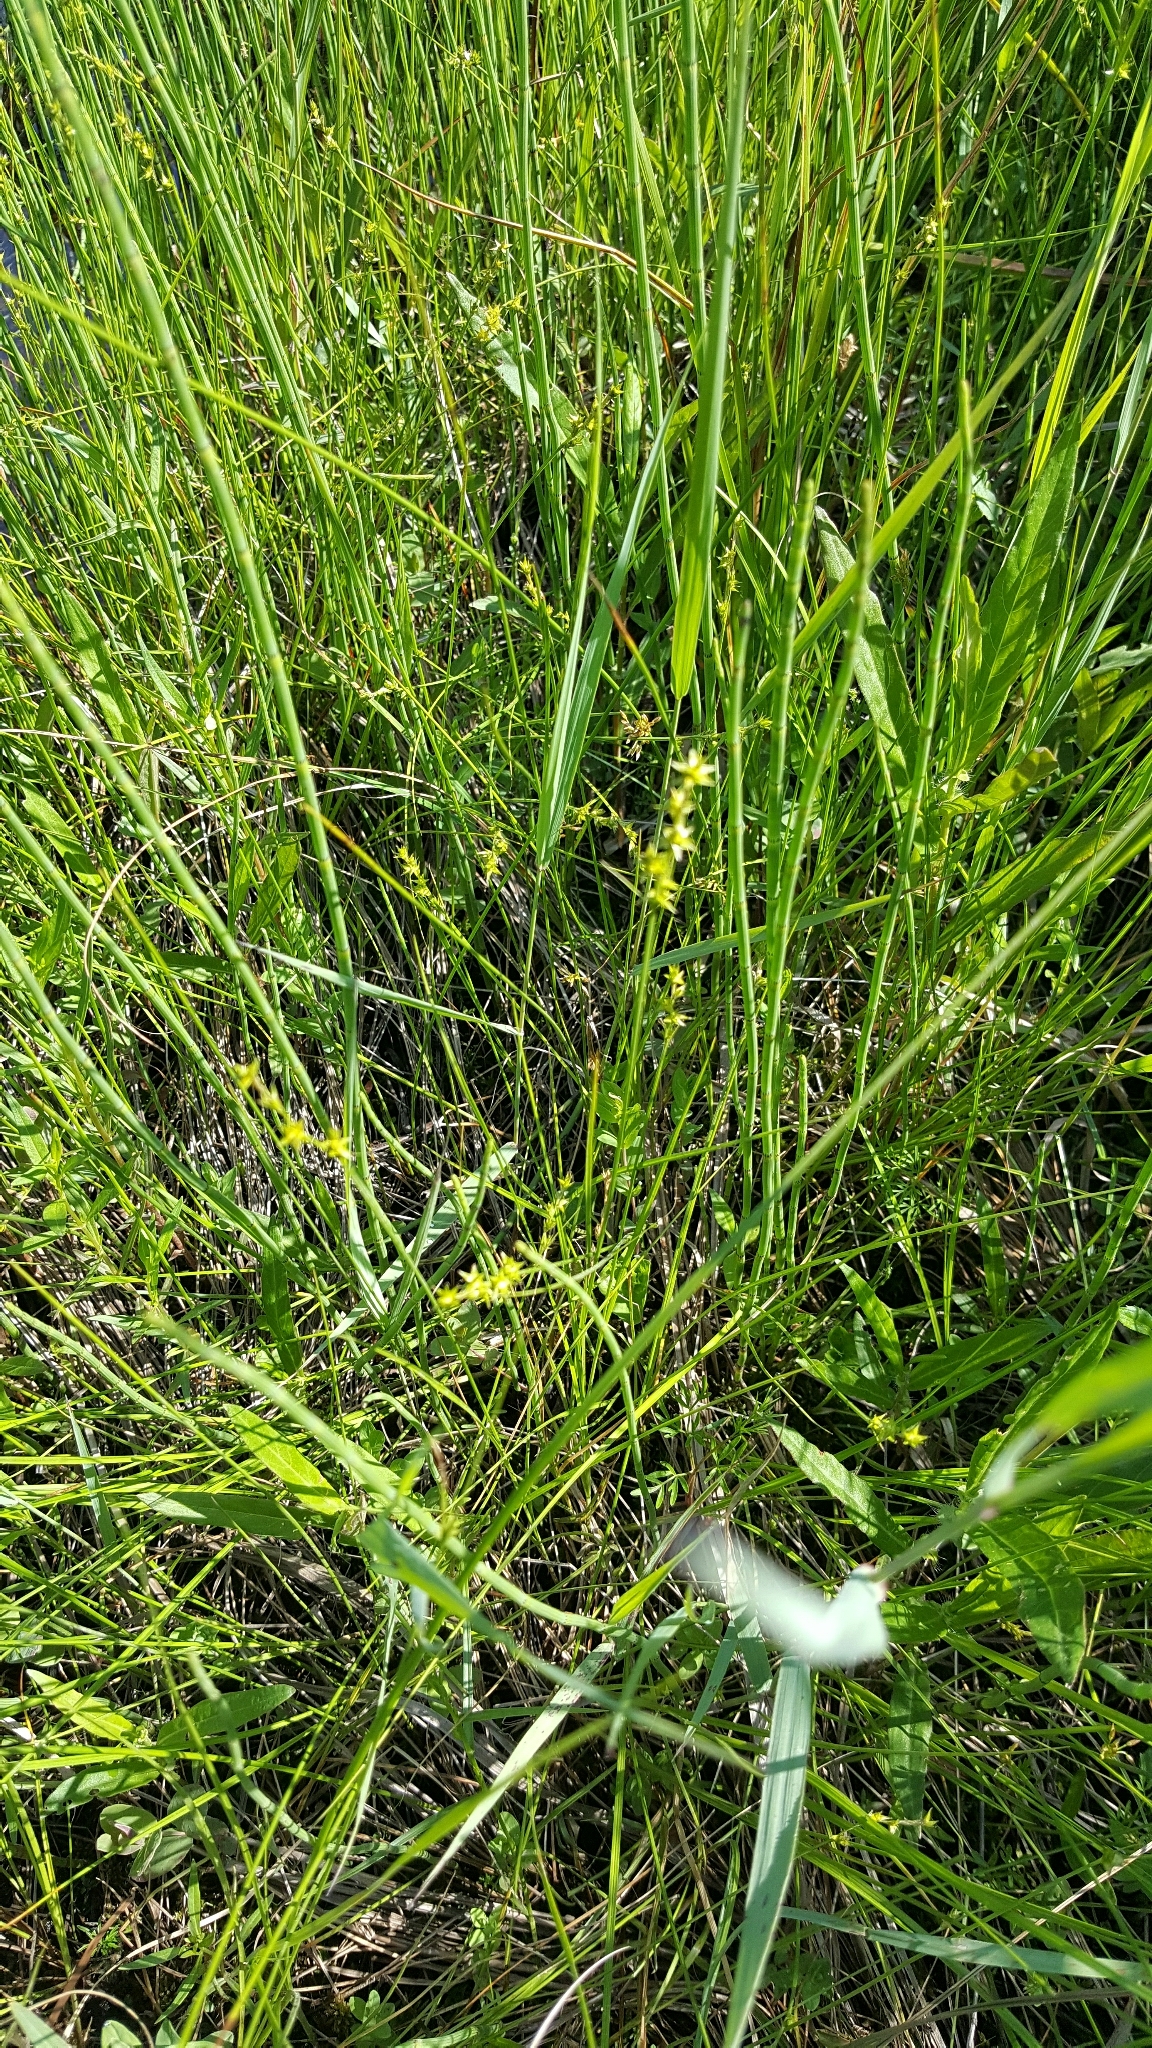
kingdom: Plantae
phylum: Tracheophyta
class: Liliopsida
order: Poales
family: Cyperaceae
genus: Carex
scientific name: Carex echinata
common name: Star sedge
